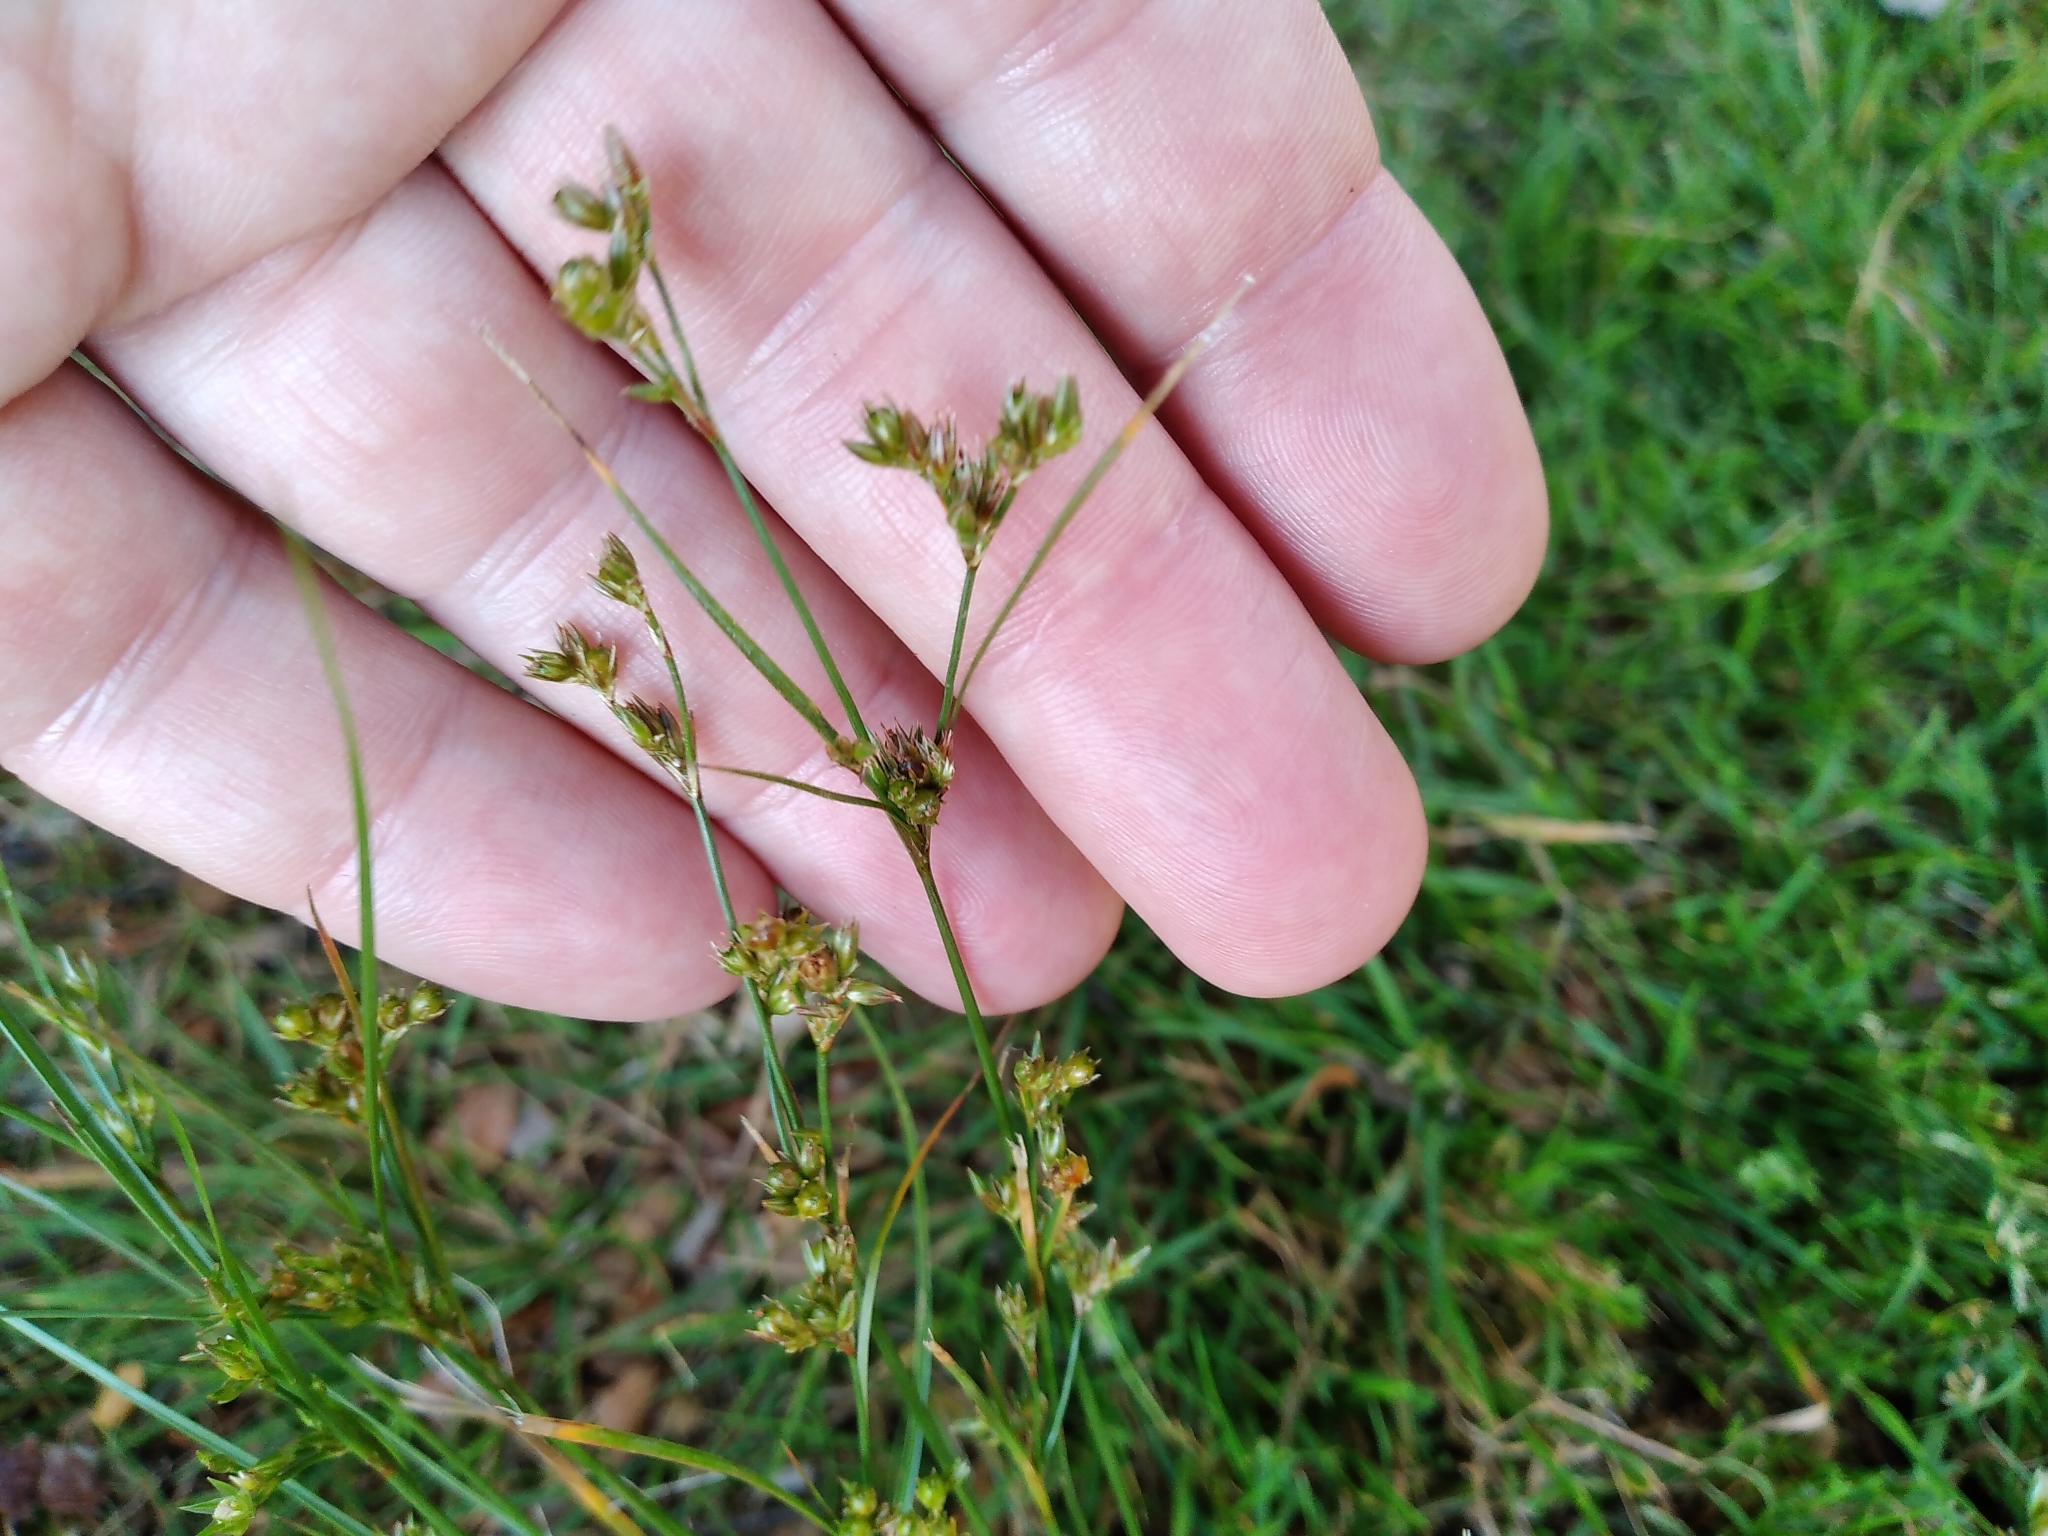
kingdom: Plantae
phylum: Tracheophyta
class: Liliopsida
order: Poales
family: Juncaceae
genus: Juncus
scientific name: Juncus tenuis
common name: Slender rush
